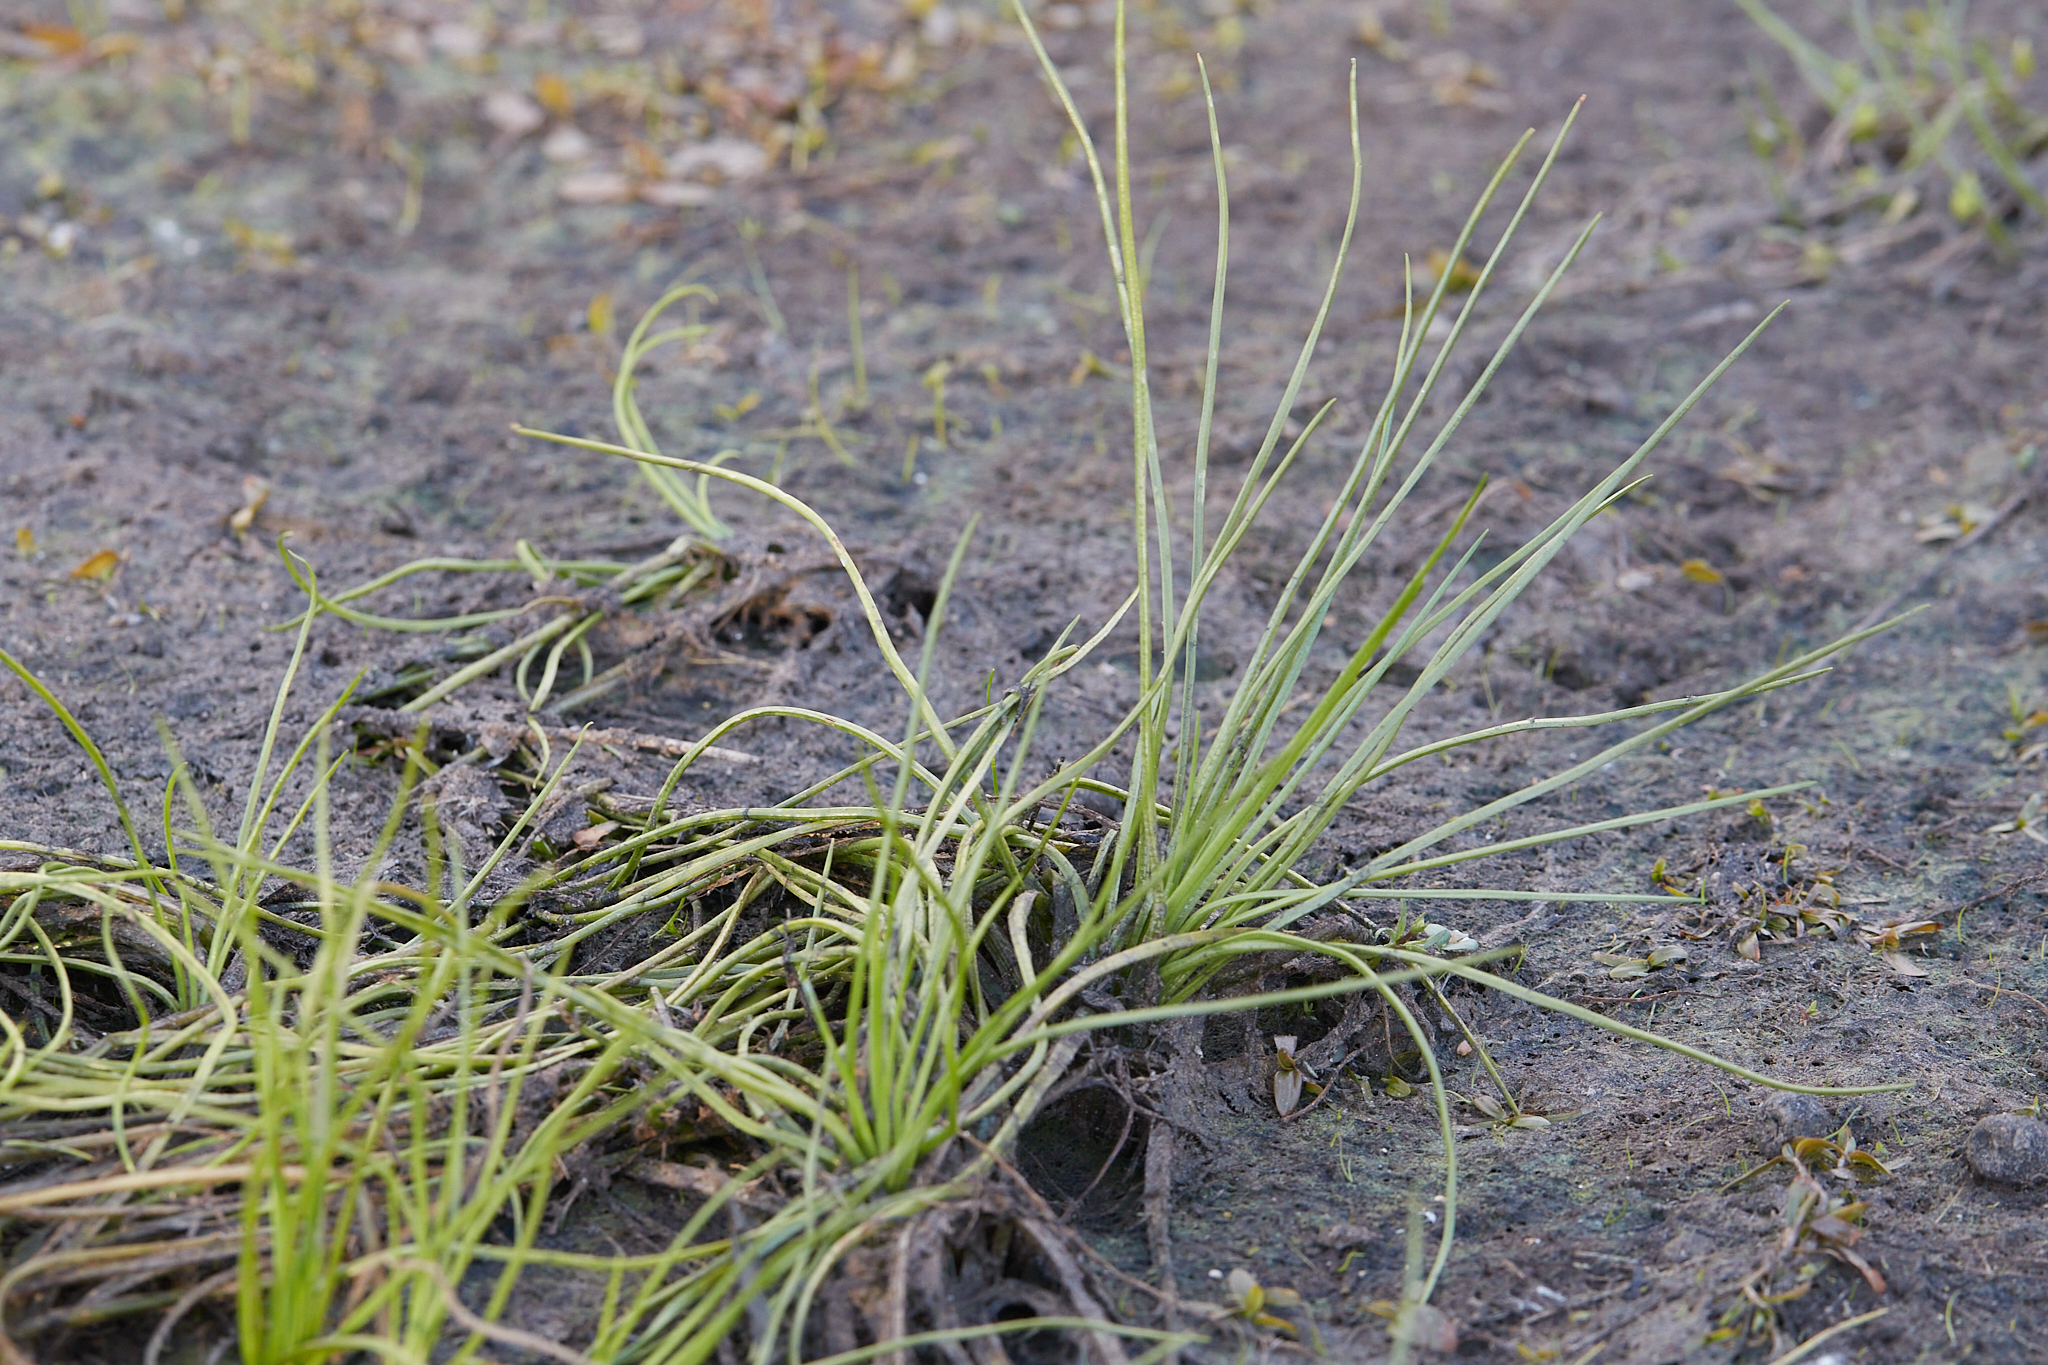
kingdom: Plantae
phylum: Tracheophyta
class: Liliopsida
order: Alismatales
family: Juncaginaceae
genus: Triglochin
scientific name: Triglochin scilloides
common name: Awl-leaved lilaea
